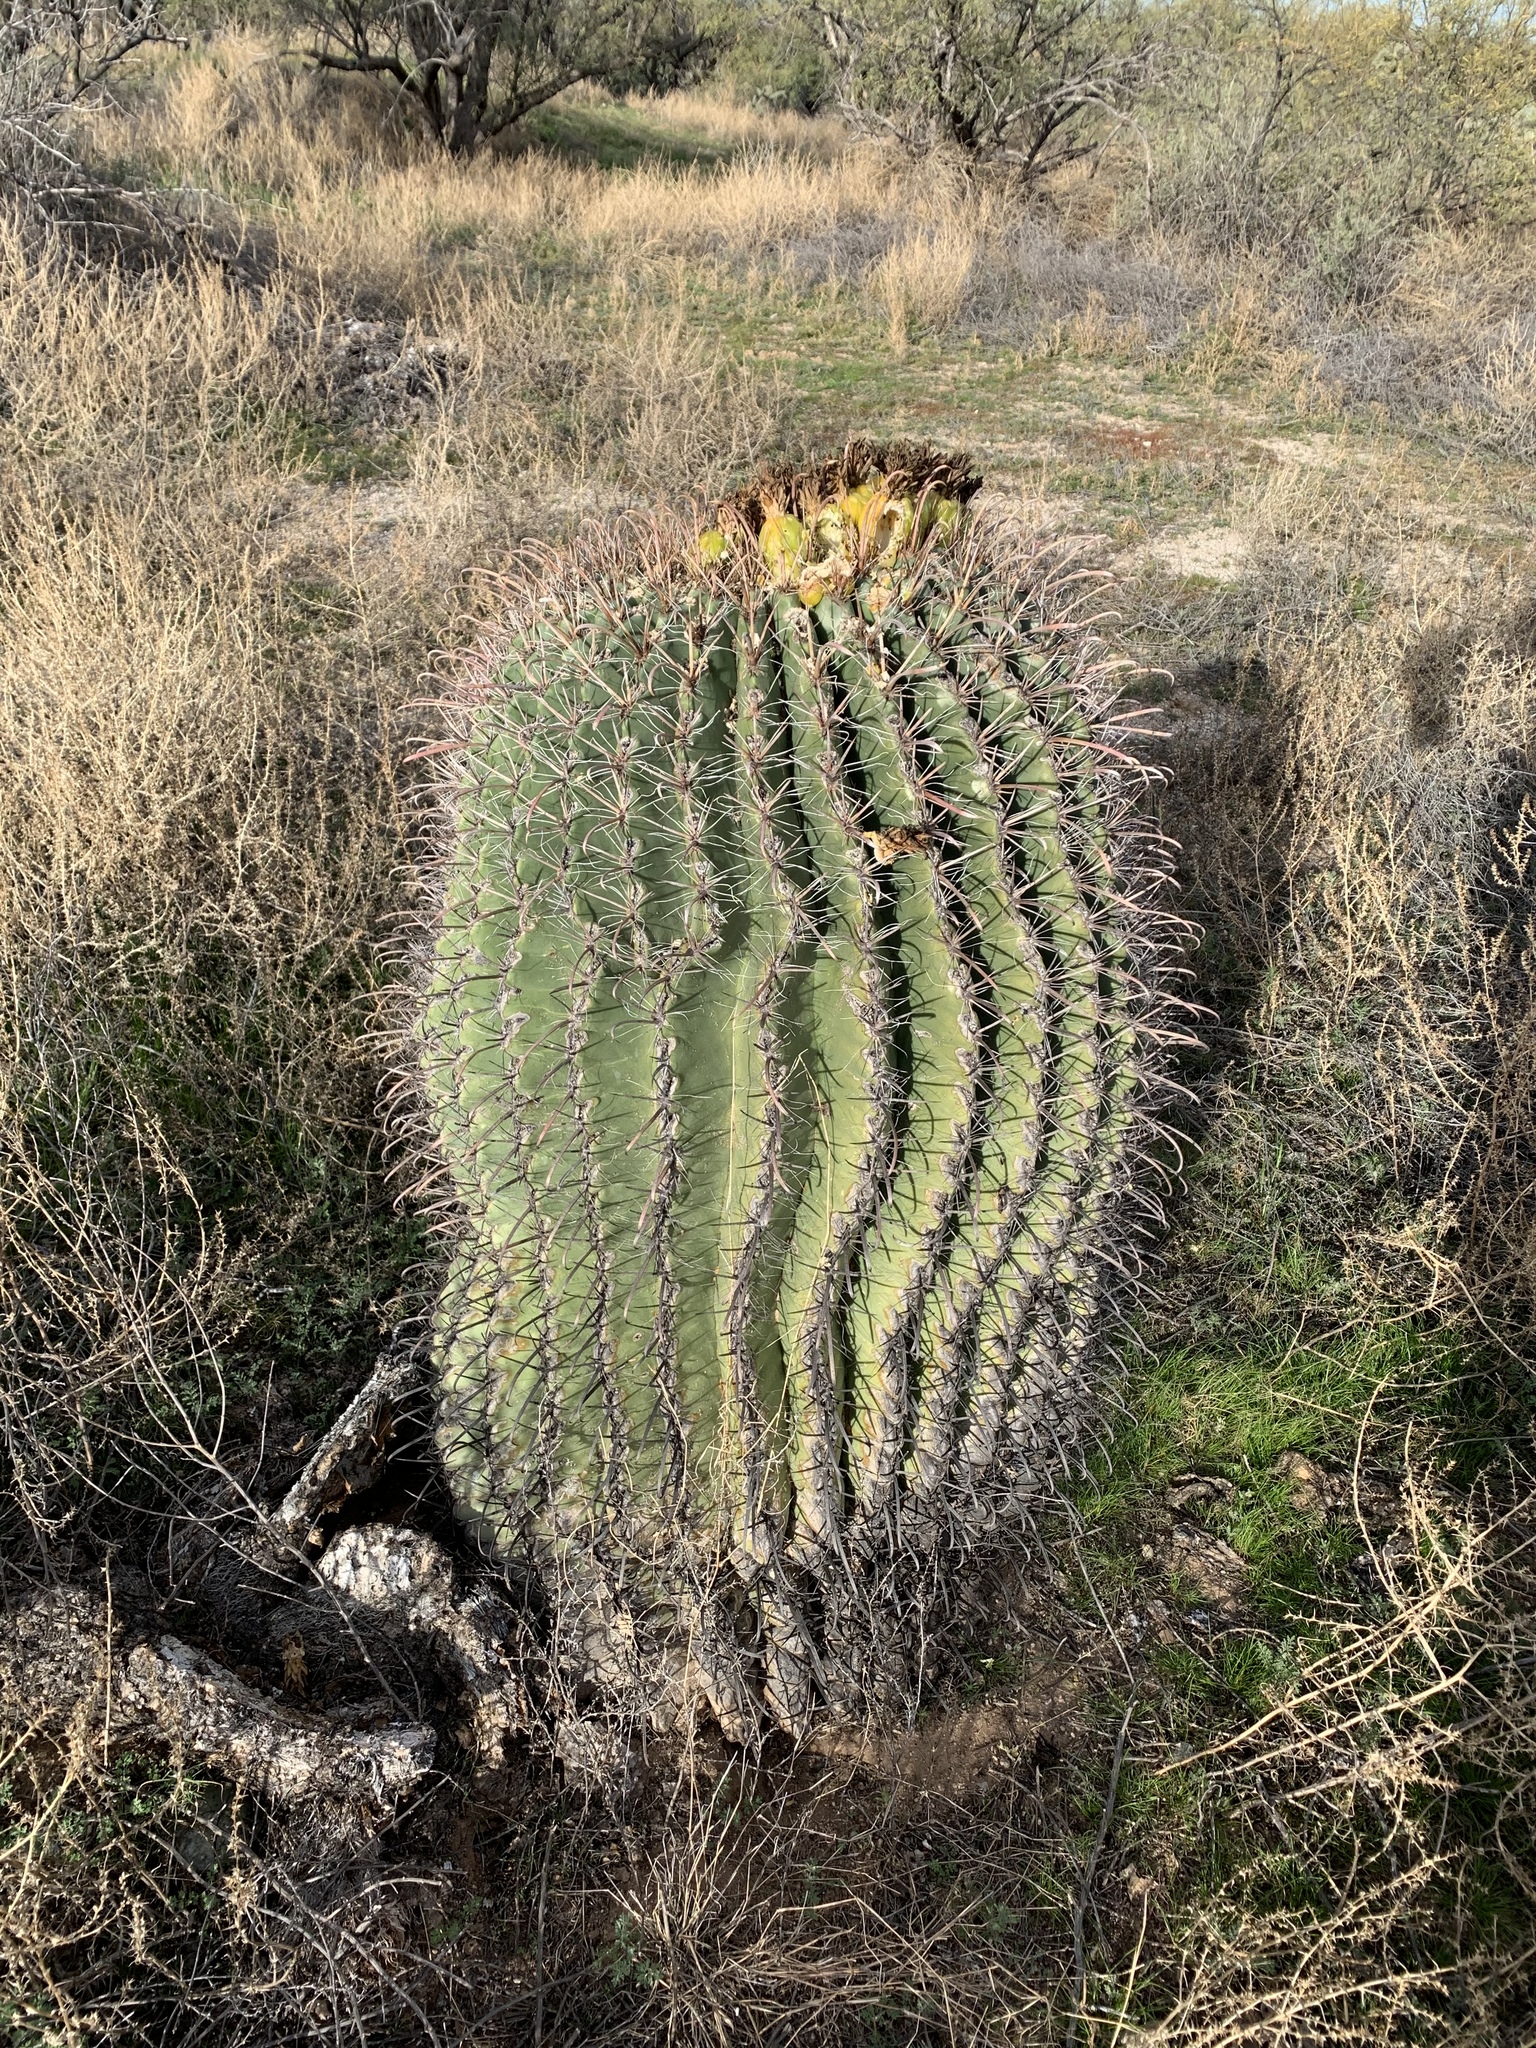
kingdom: Plantae
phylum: Tracheophyta
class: Magnoliopsida
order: Caryophyllales
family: Cactaceae
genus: Ferocactus
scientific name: Ferocactus wislizeni
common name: Candy barrel cactus
